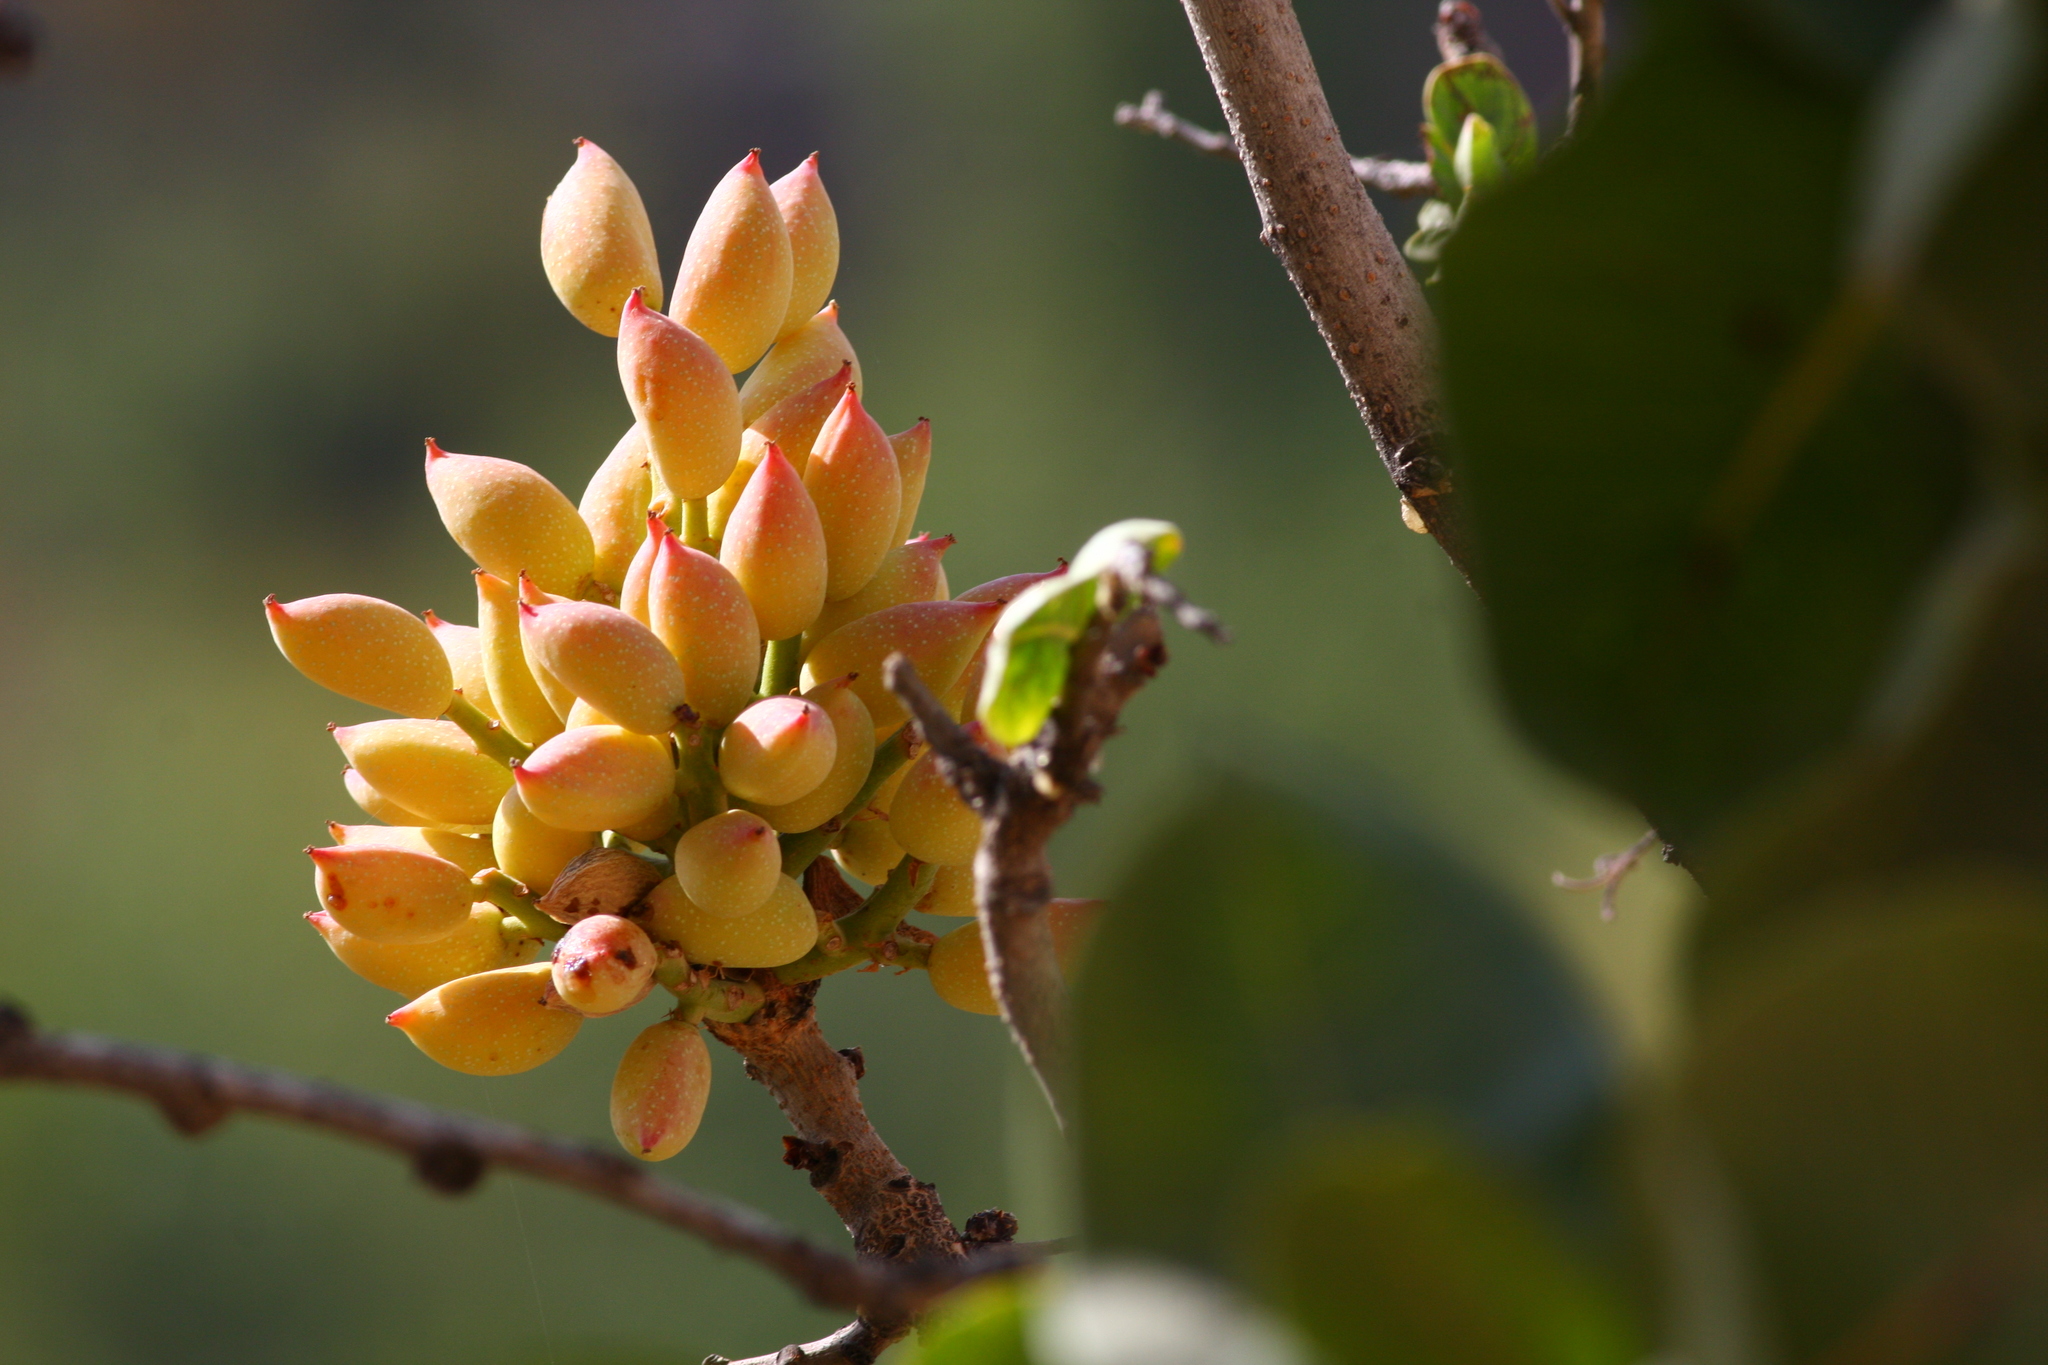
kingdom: Plantae
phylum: Tracheophyta
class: Magnoliopsida
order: Sapindales
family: Anacardiaceae
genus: Pistacia
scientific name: Pistacia terebinthus
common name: Terebinth
